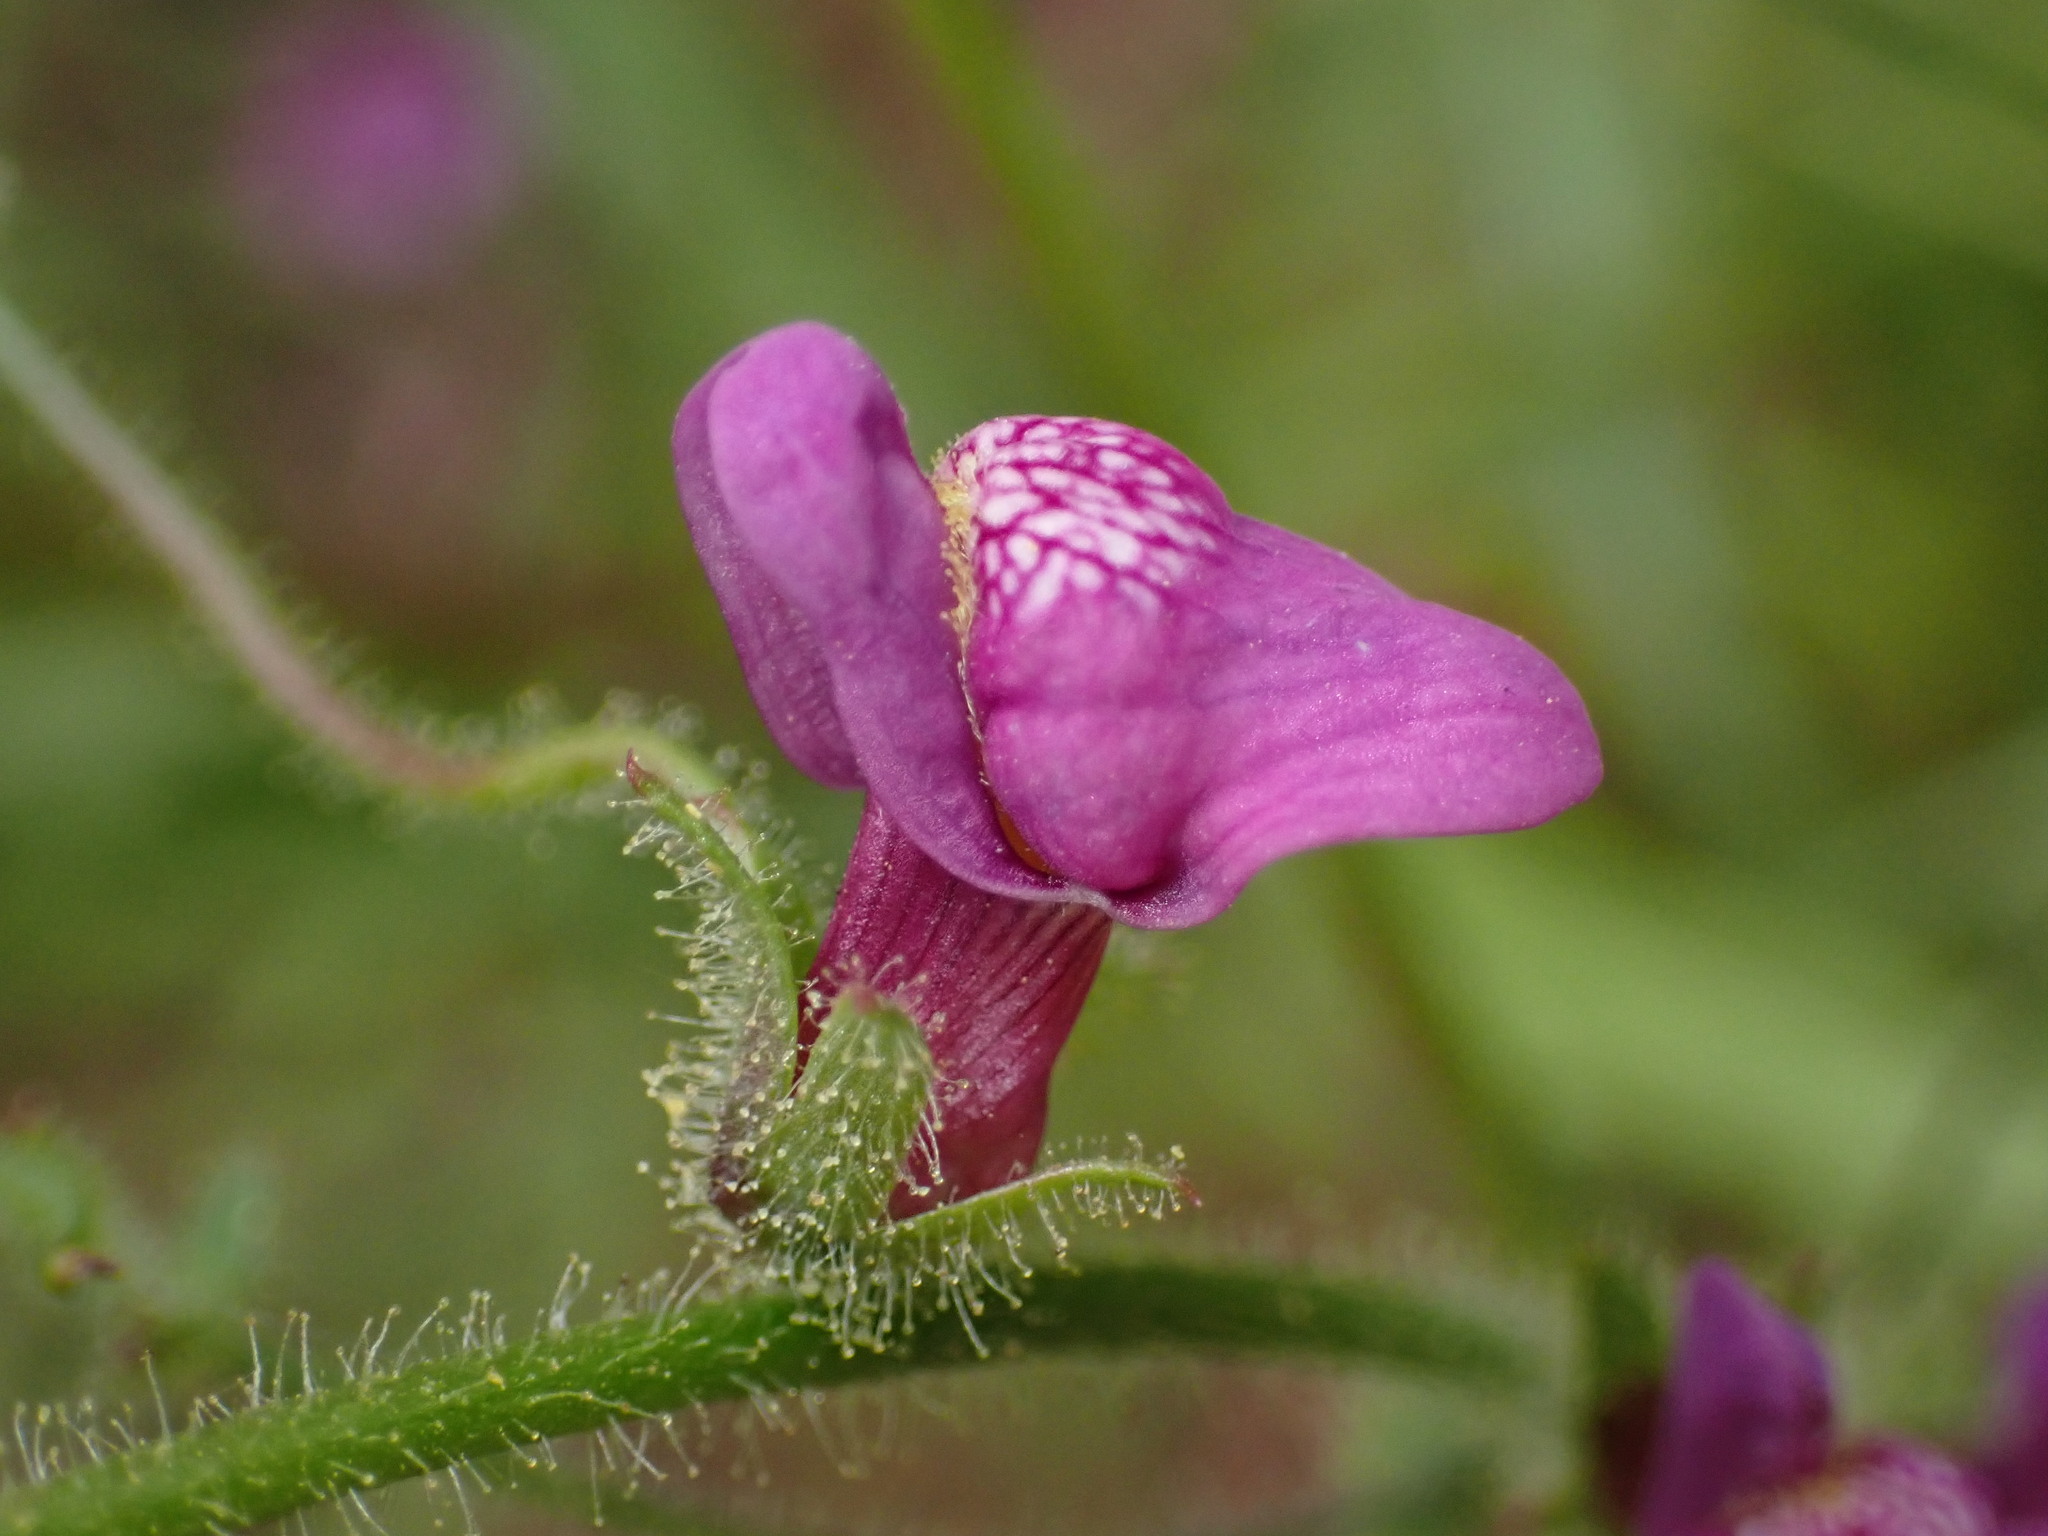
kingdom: Plantae
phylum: Tracheophyta
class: Magnoliopsida
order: Lamiales
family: Plantaginaceae
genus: Sairocarpus
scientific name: Sairocarpus nuttallianus
